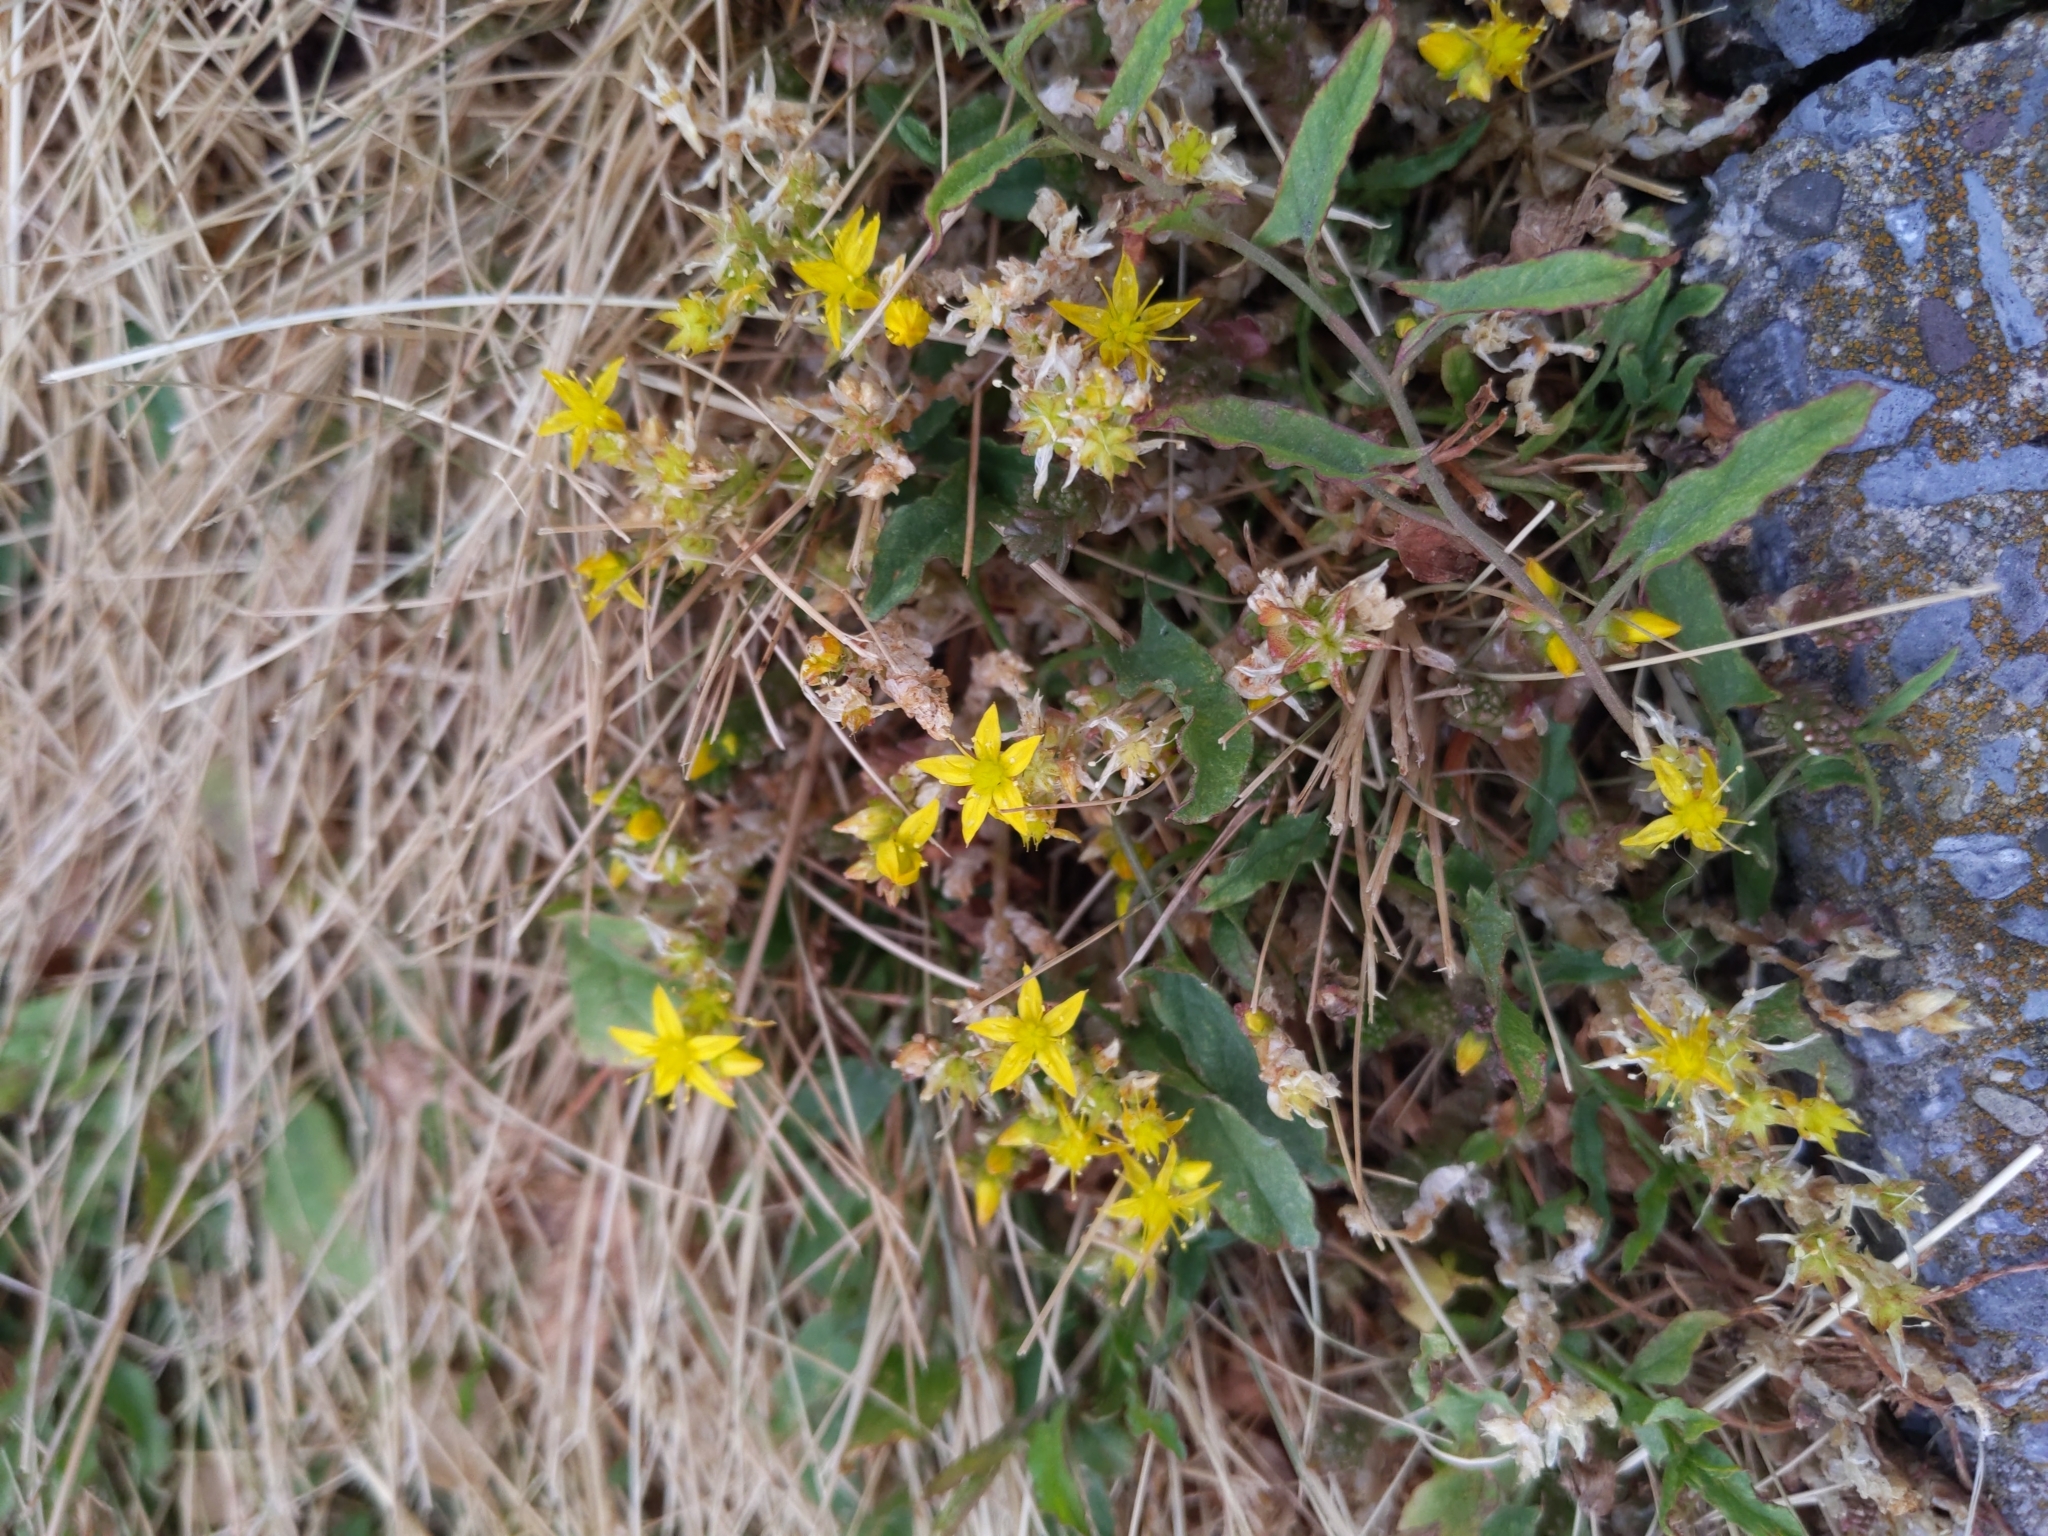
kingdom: Plantae
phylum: Tracheophyta
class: Magnoliopsida
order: Saxifragales
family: Crassulaceae
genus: Sedum
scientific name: Sedum acre
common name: Biting stonecrop
